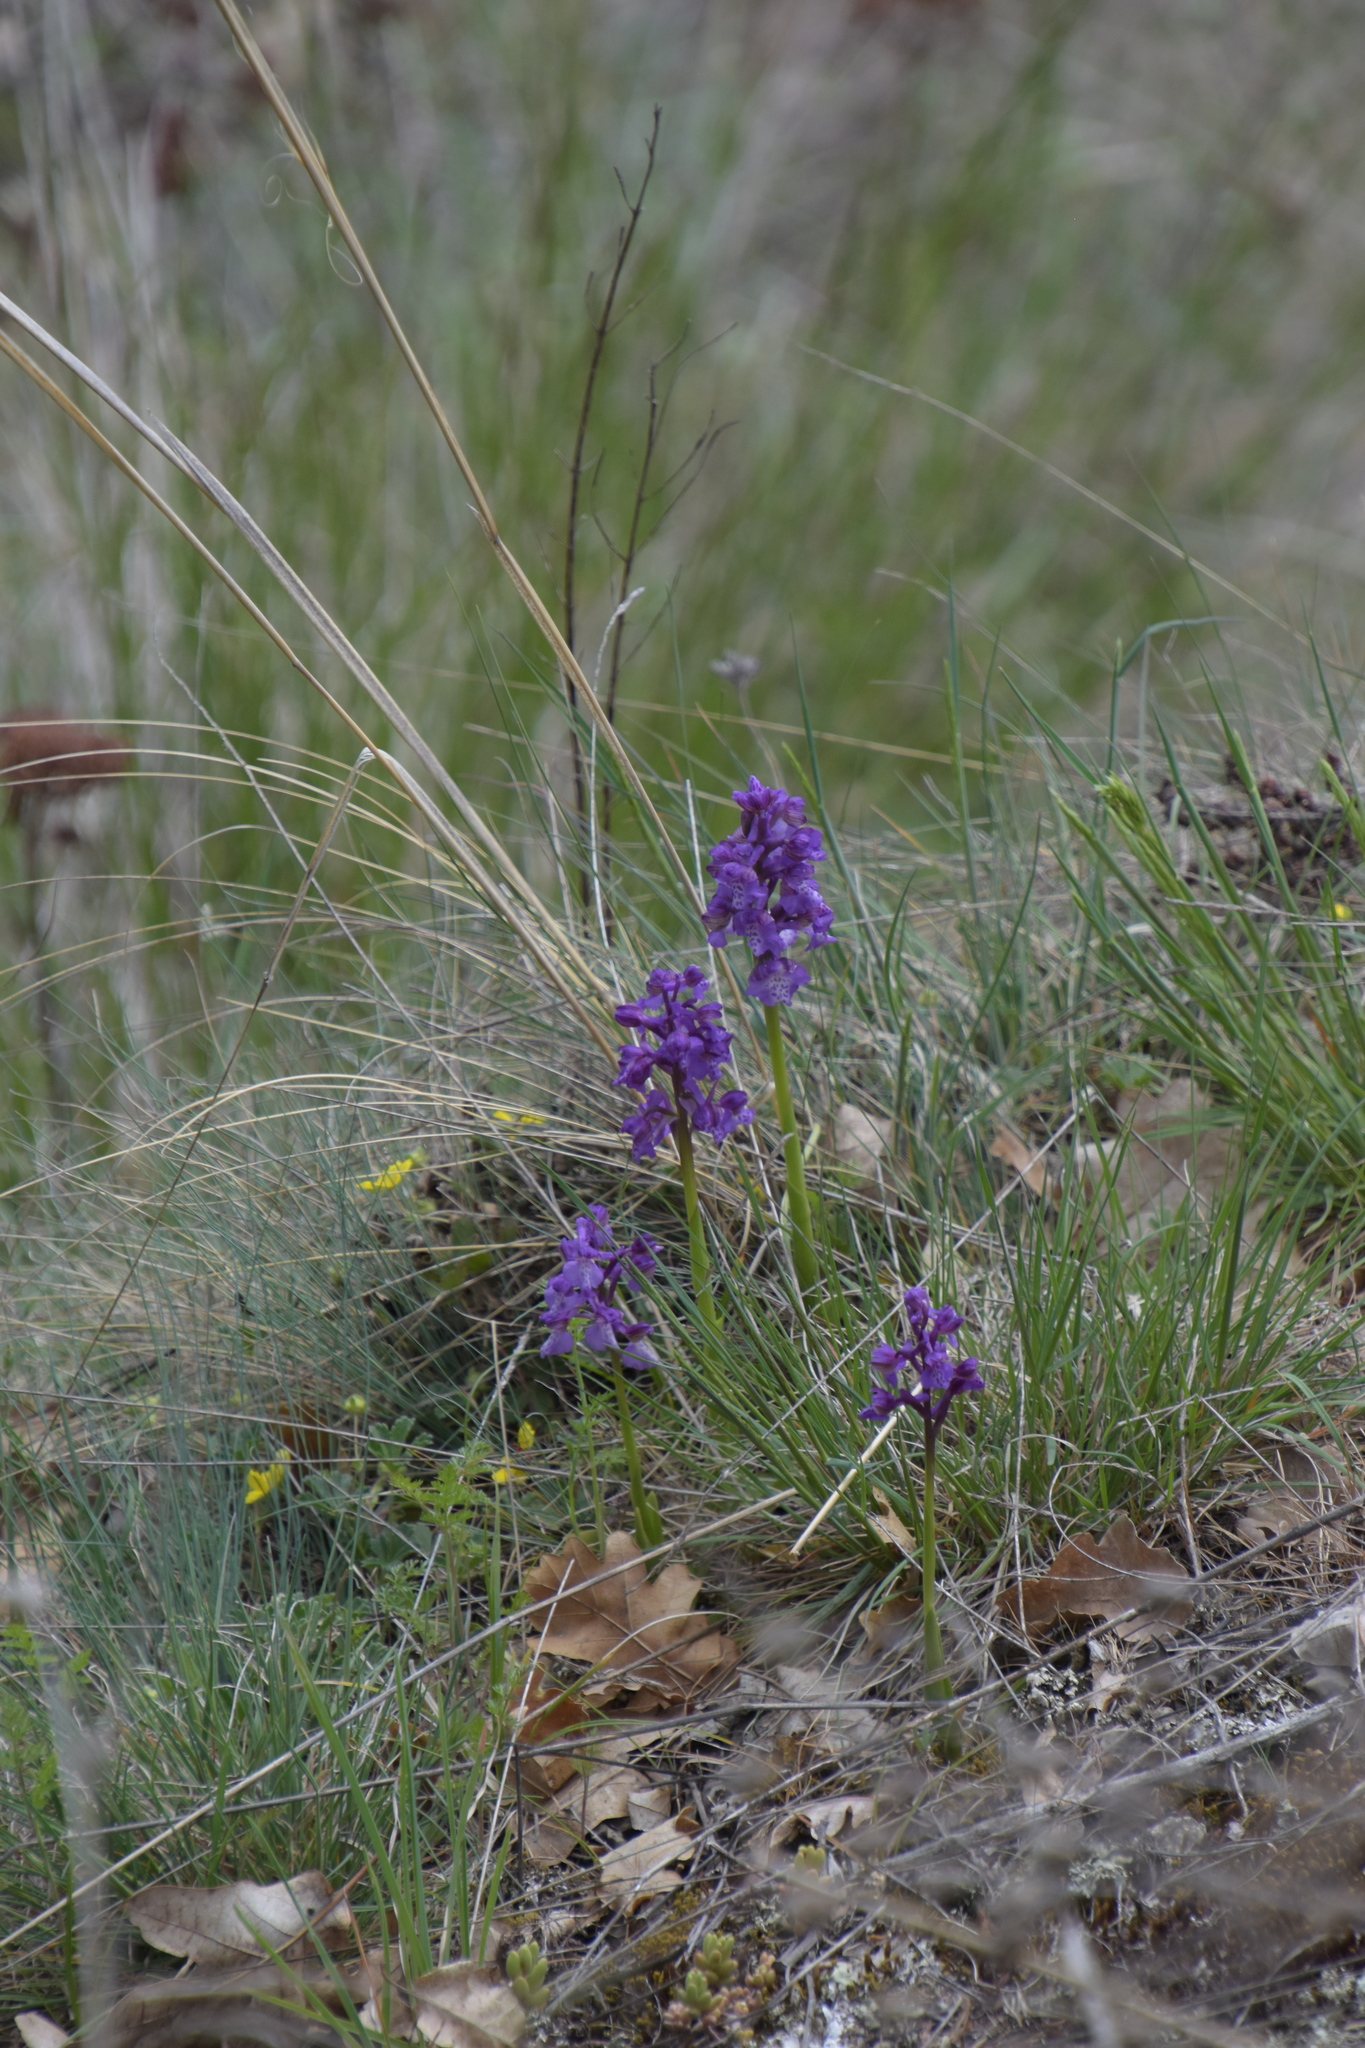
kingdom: Plantae
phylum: Tracheophyta
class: Liliopsida
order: Asparagales
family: Orchidaceae
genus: Anacamptis
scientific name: Anacamptis morio
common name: Green-winged orchid
